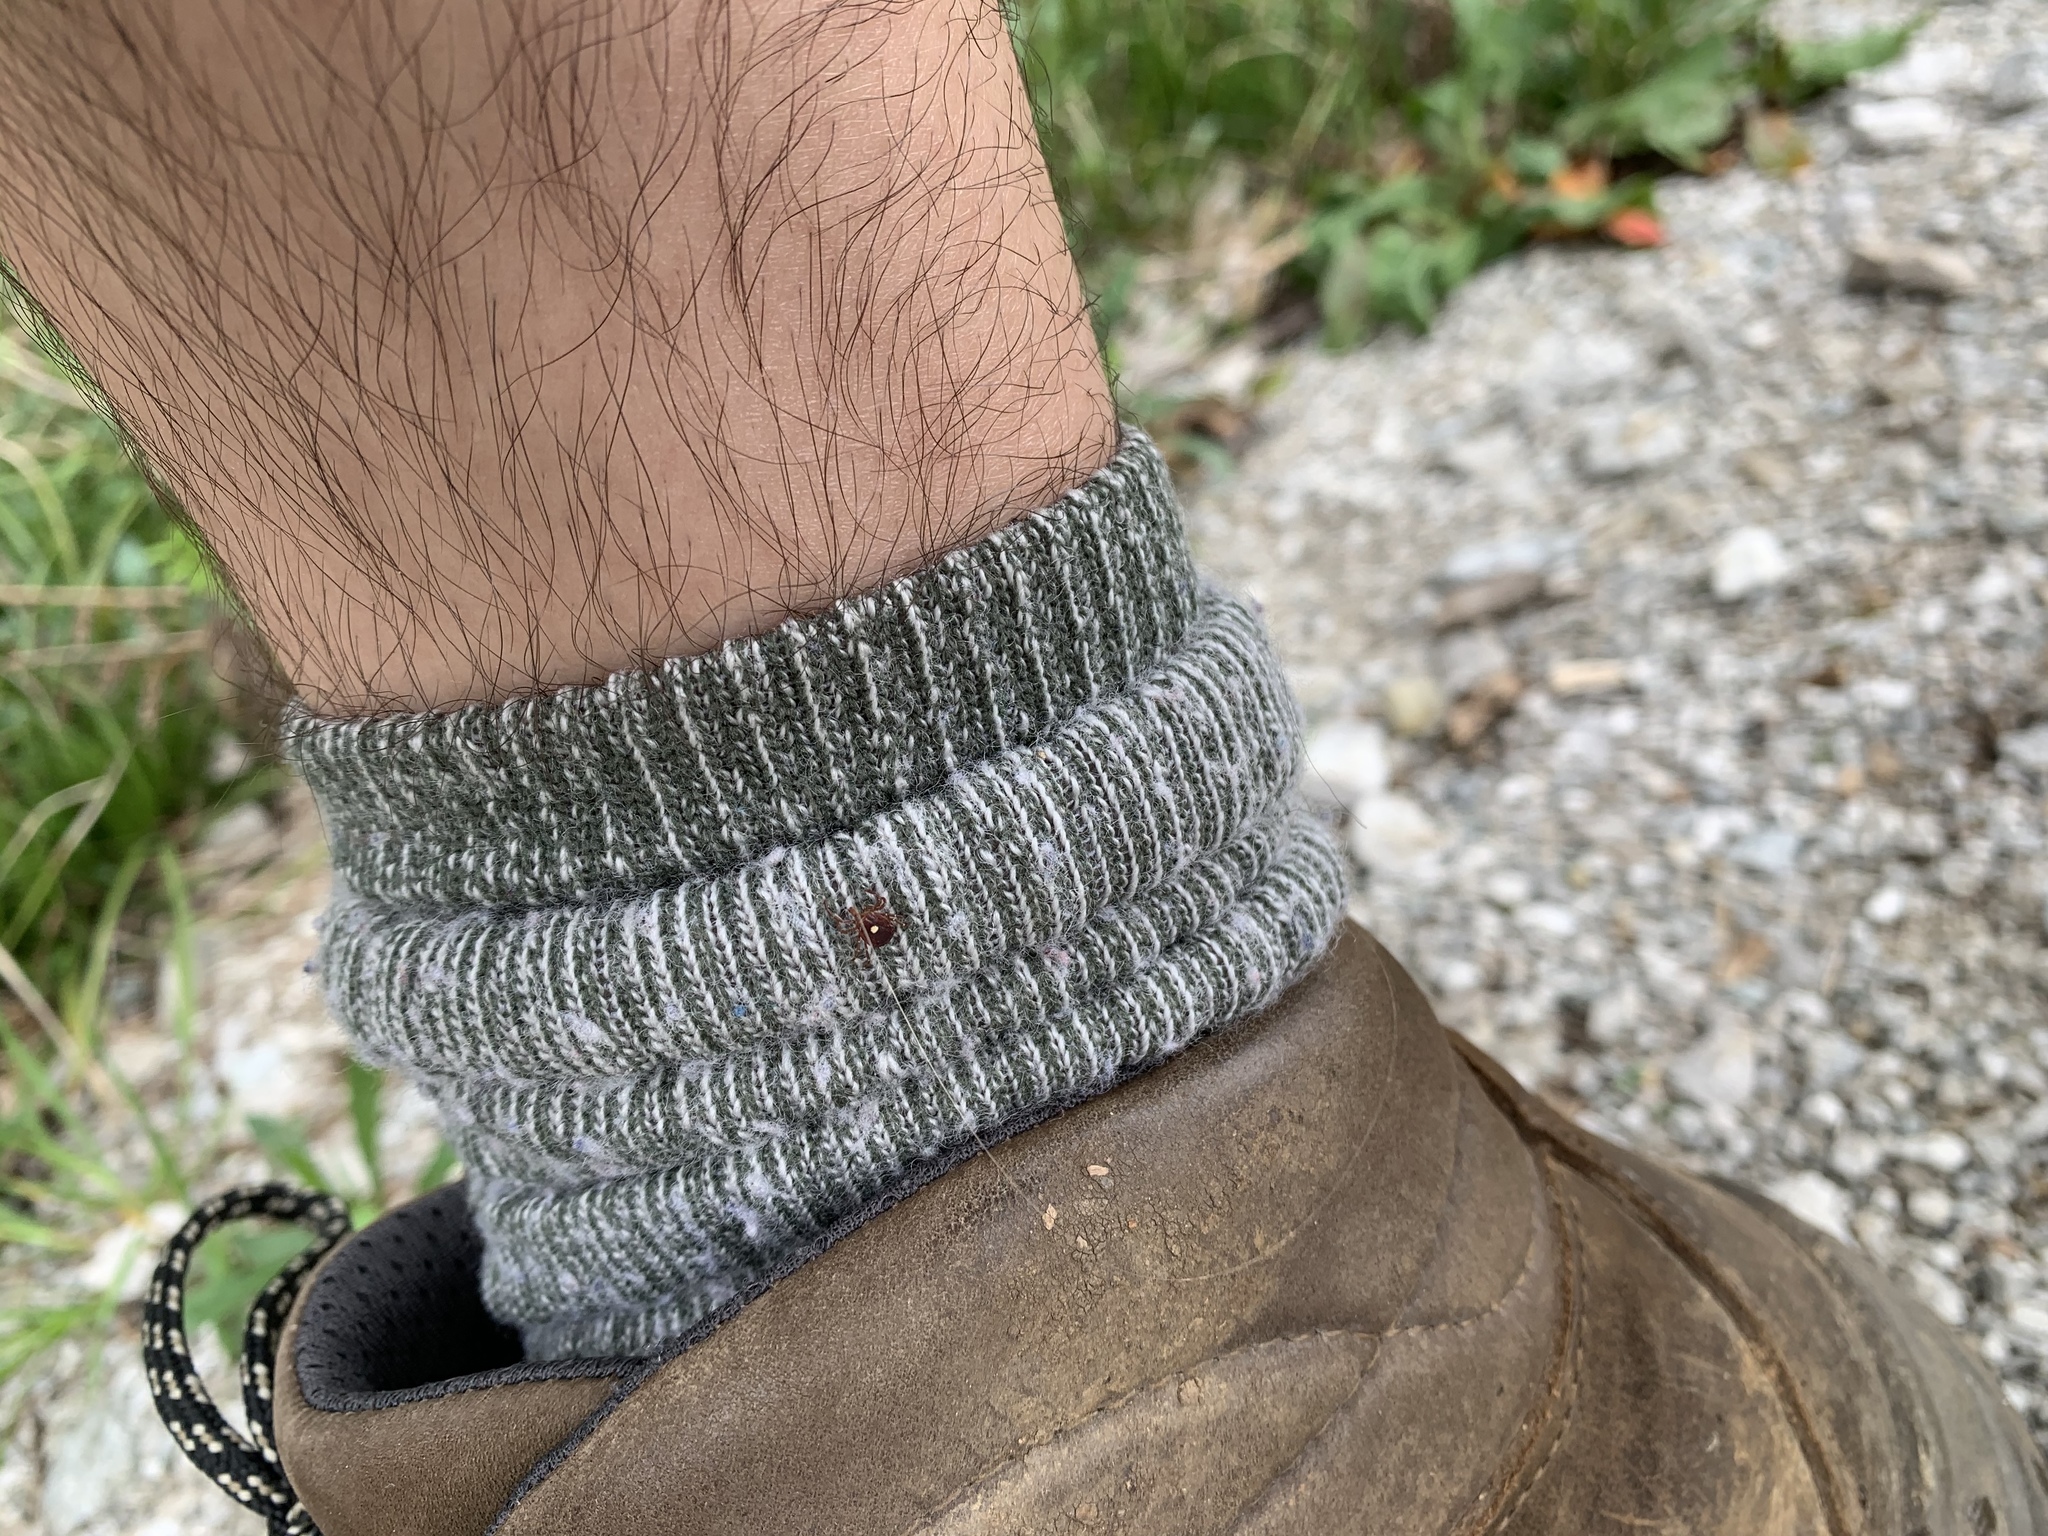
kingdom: Animalia
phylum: Arthropoda
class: Arachnida
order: Ixodida
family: Ixodidae
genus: Amblyomma
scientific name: Amblyomma americanum
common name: Lone star tick
